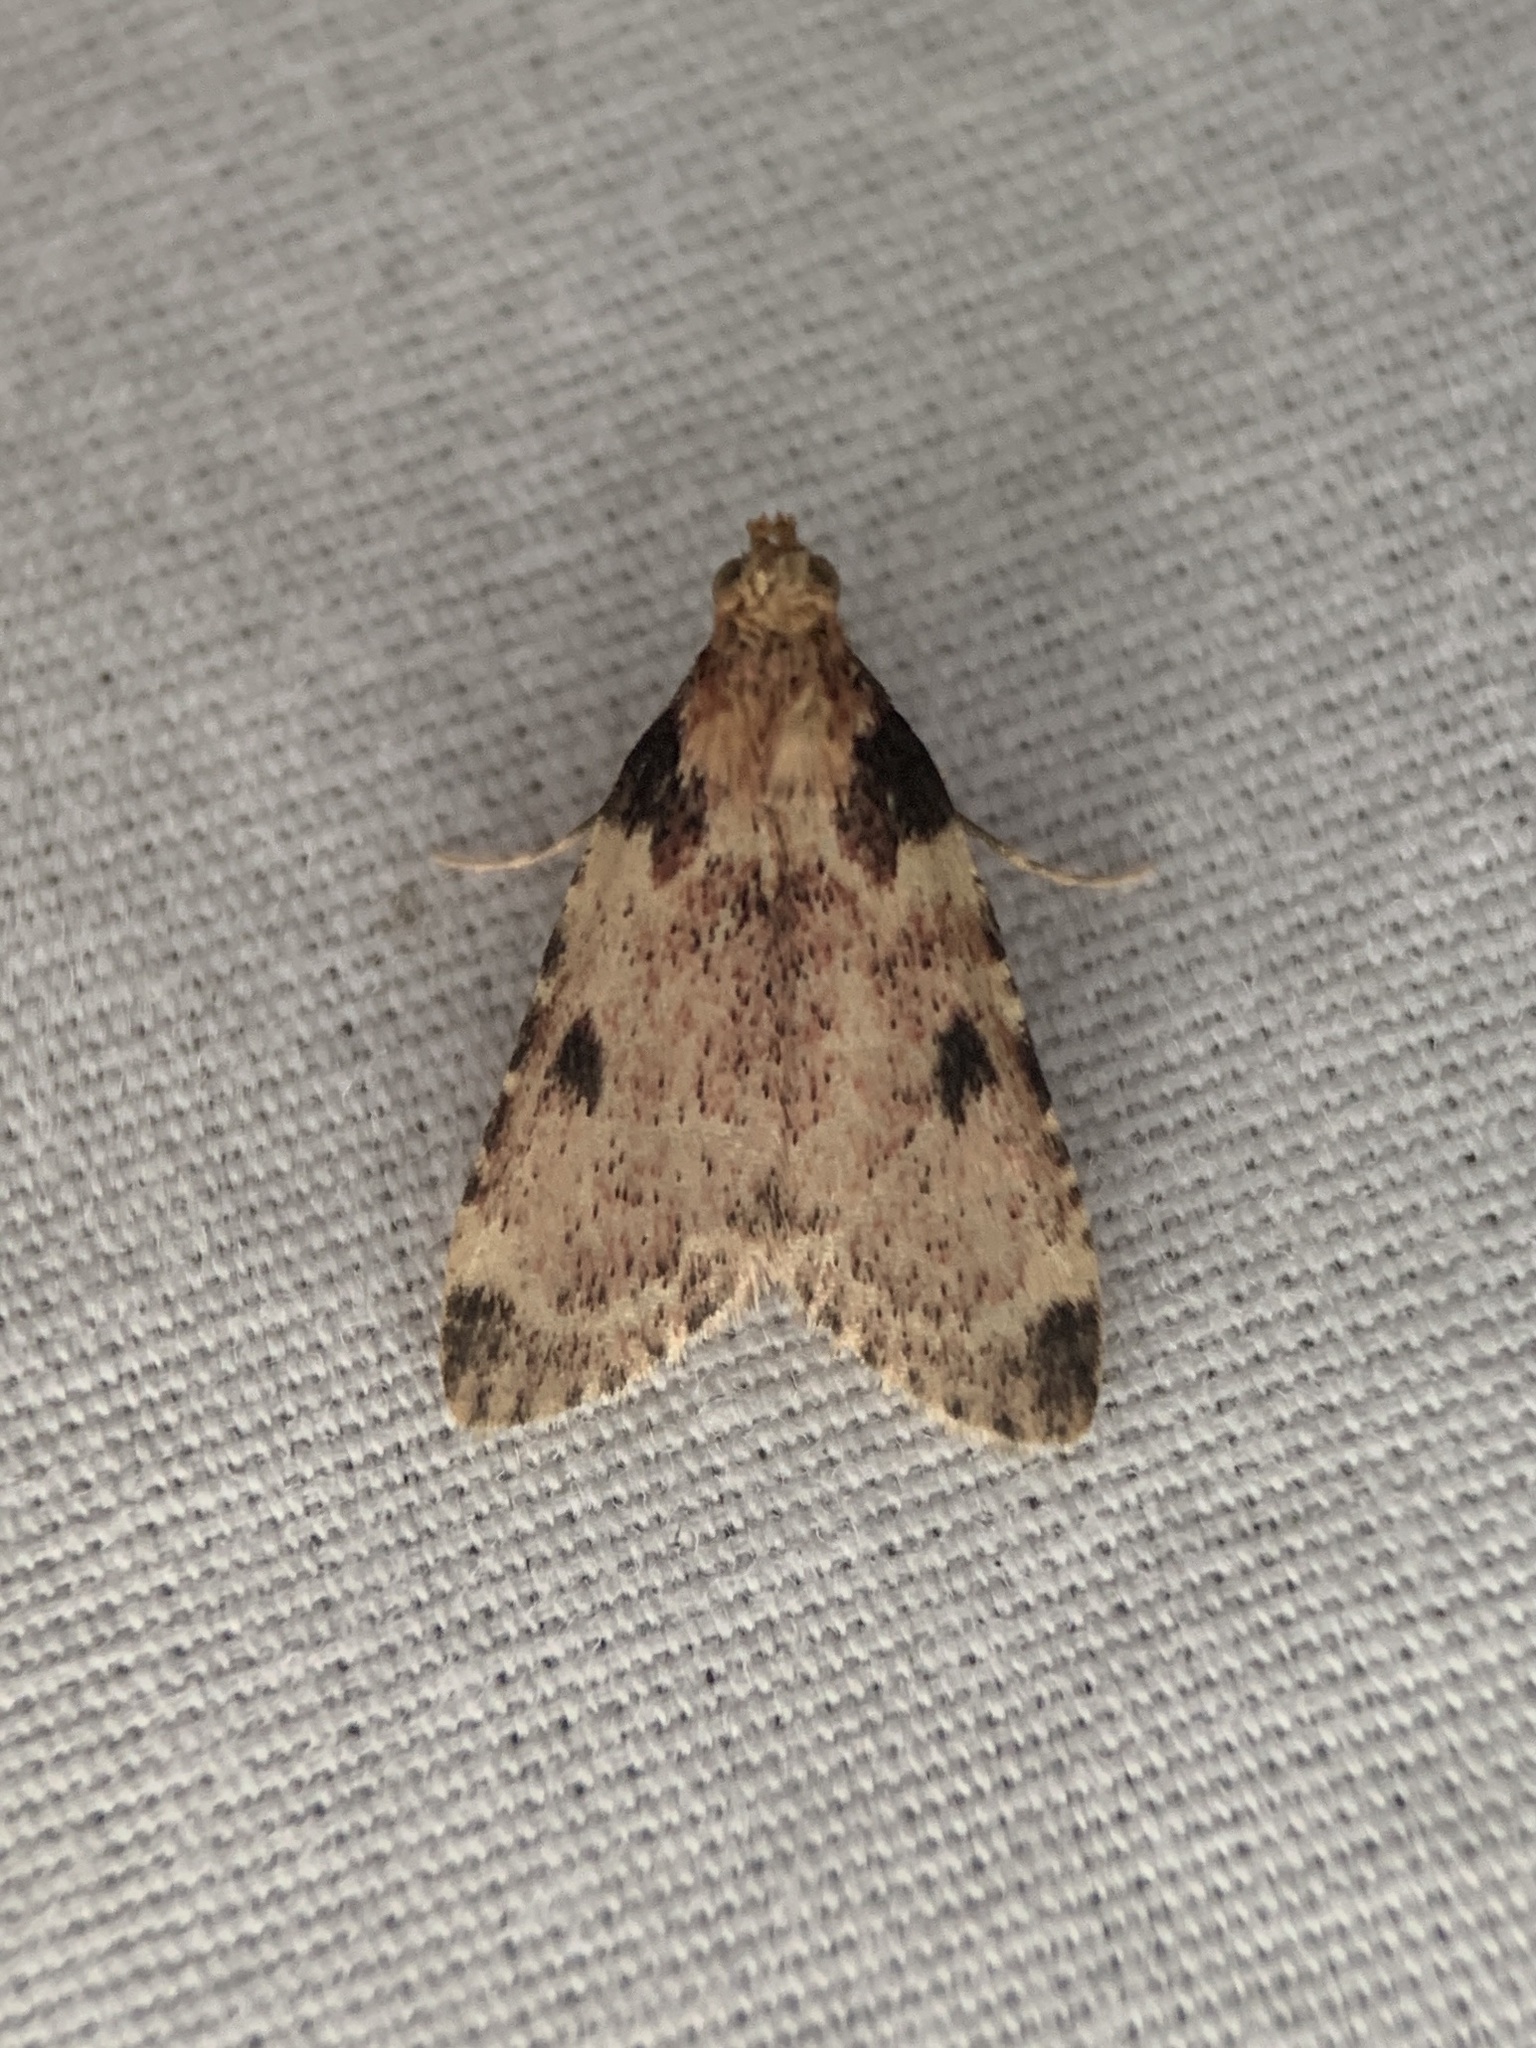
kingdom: Animalia
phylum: Arthropoda
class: Insecta
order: Lepidoptera
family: Pyralidae
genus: Aglossa
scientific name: Aglossa costiferalis
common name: Calico pyralid moth
